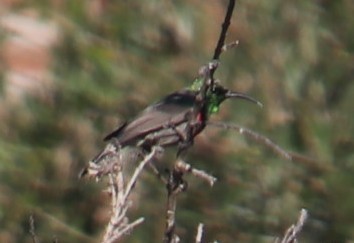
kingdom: Animalia
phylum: Chordata
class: Aves
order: Passeriformes
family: Nectariniidae
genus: Cinnyris
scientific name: Cinnyris chalybeus
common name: Southern double-collared sunbird
